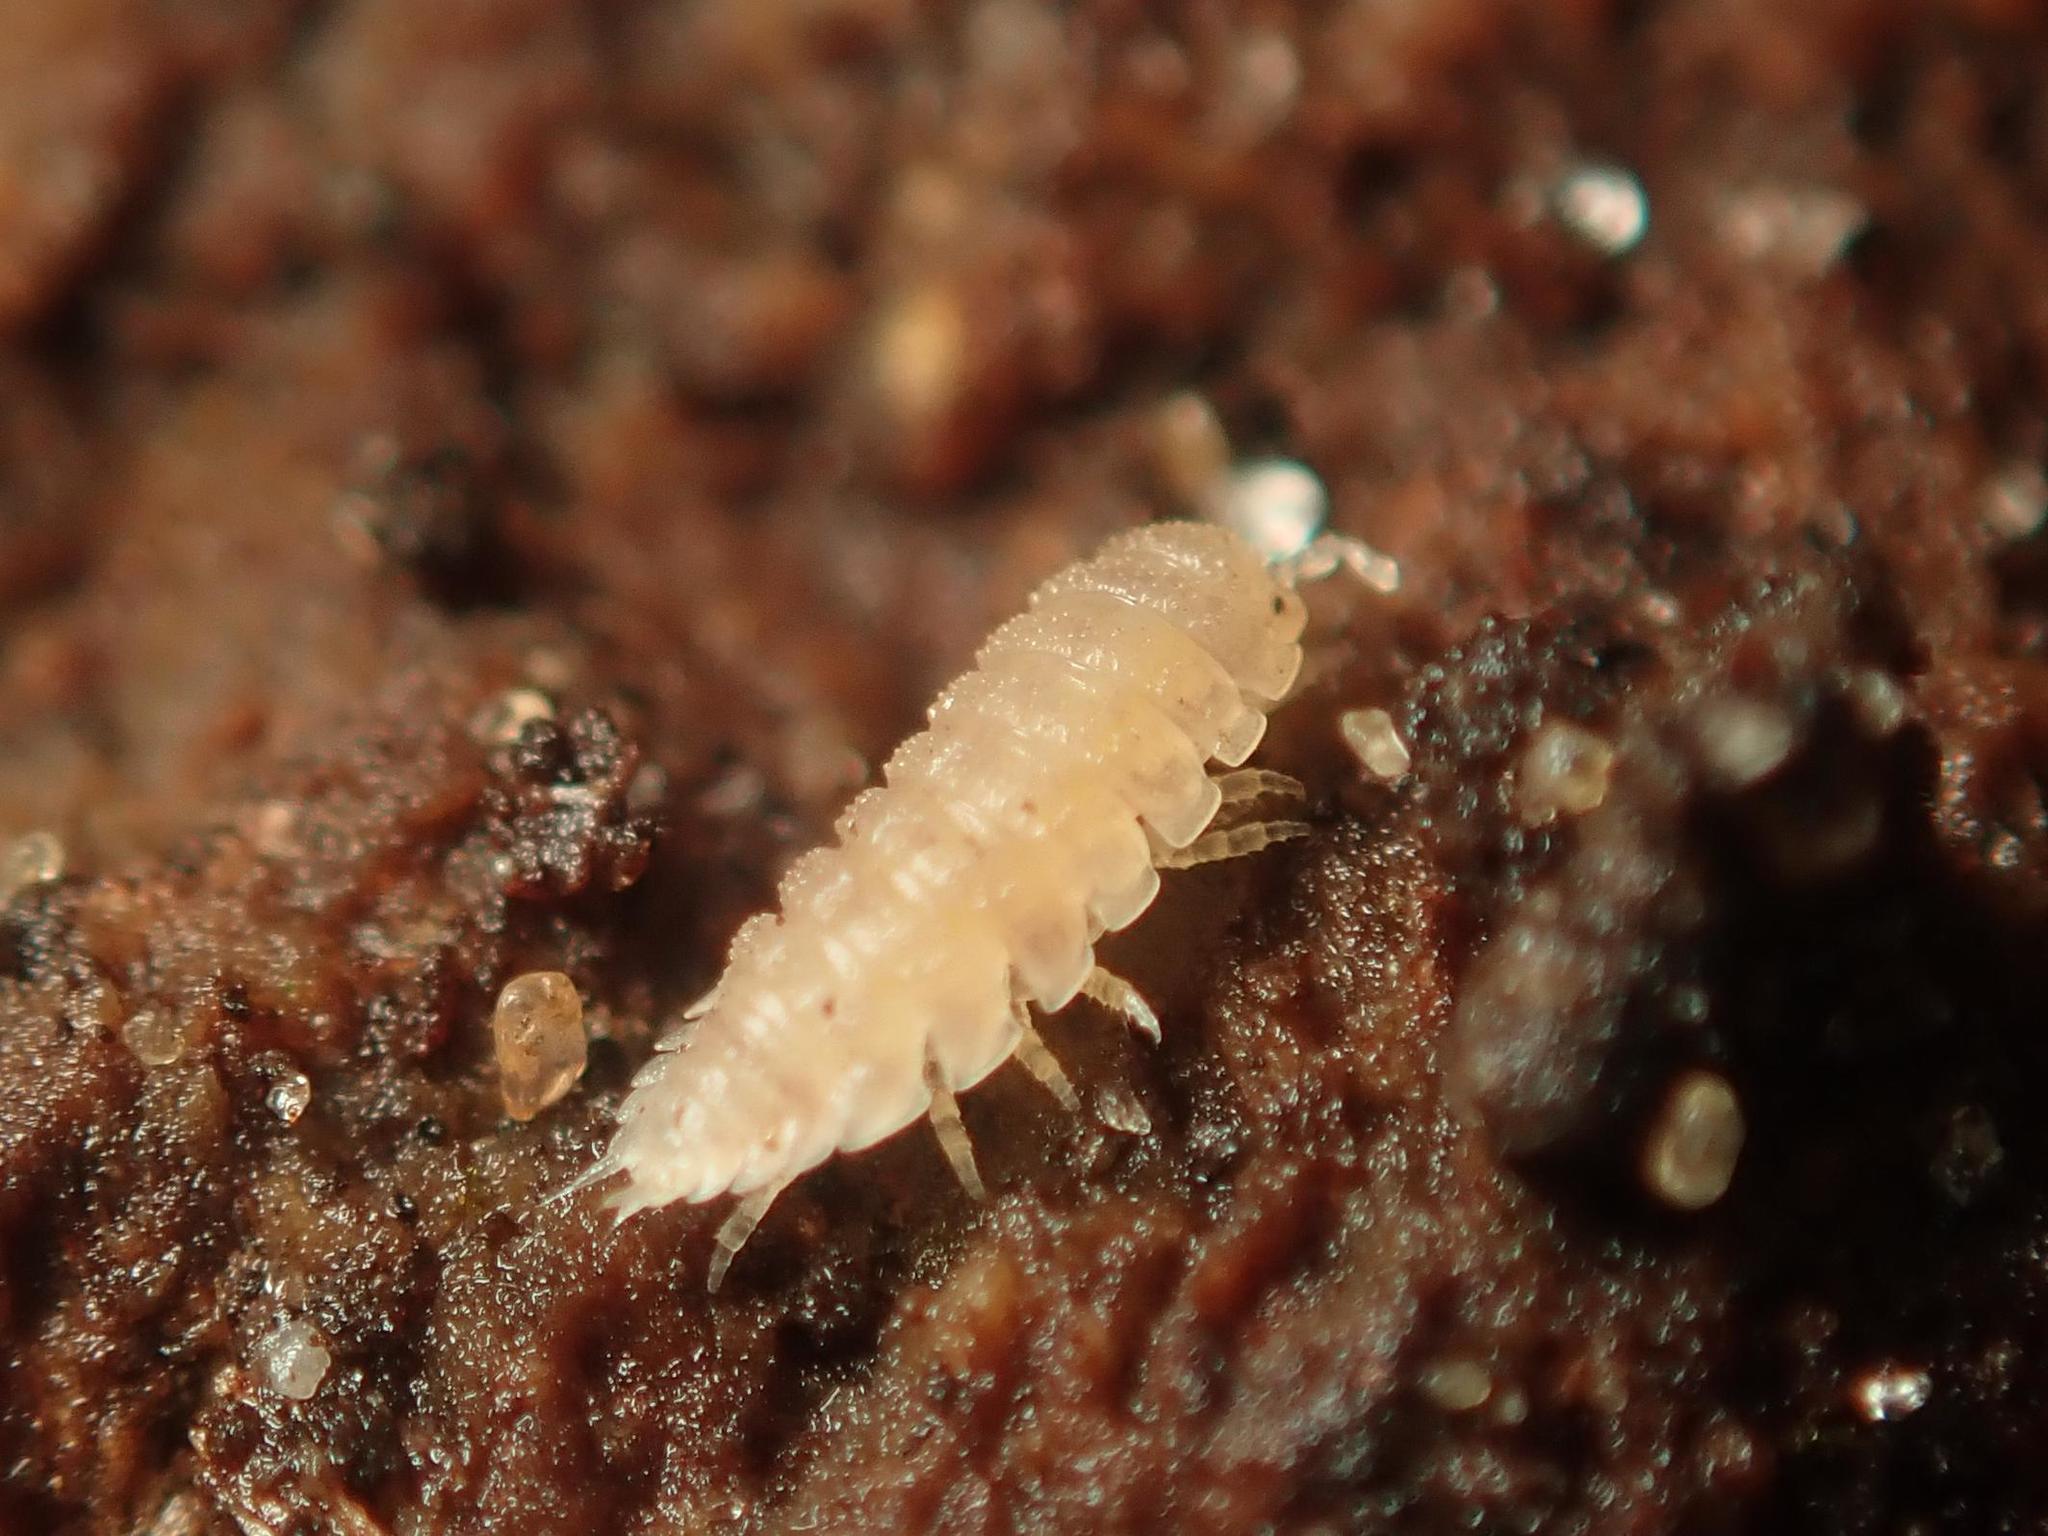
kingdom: Animalia
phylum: Arthropoda
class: Malacostraca
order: Isopoda
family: Trichoniscidae
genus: Haplophthalmus
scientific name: Haplophthalmus danicus
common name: Pillbug
